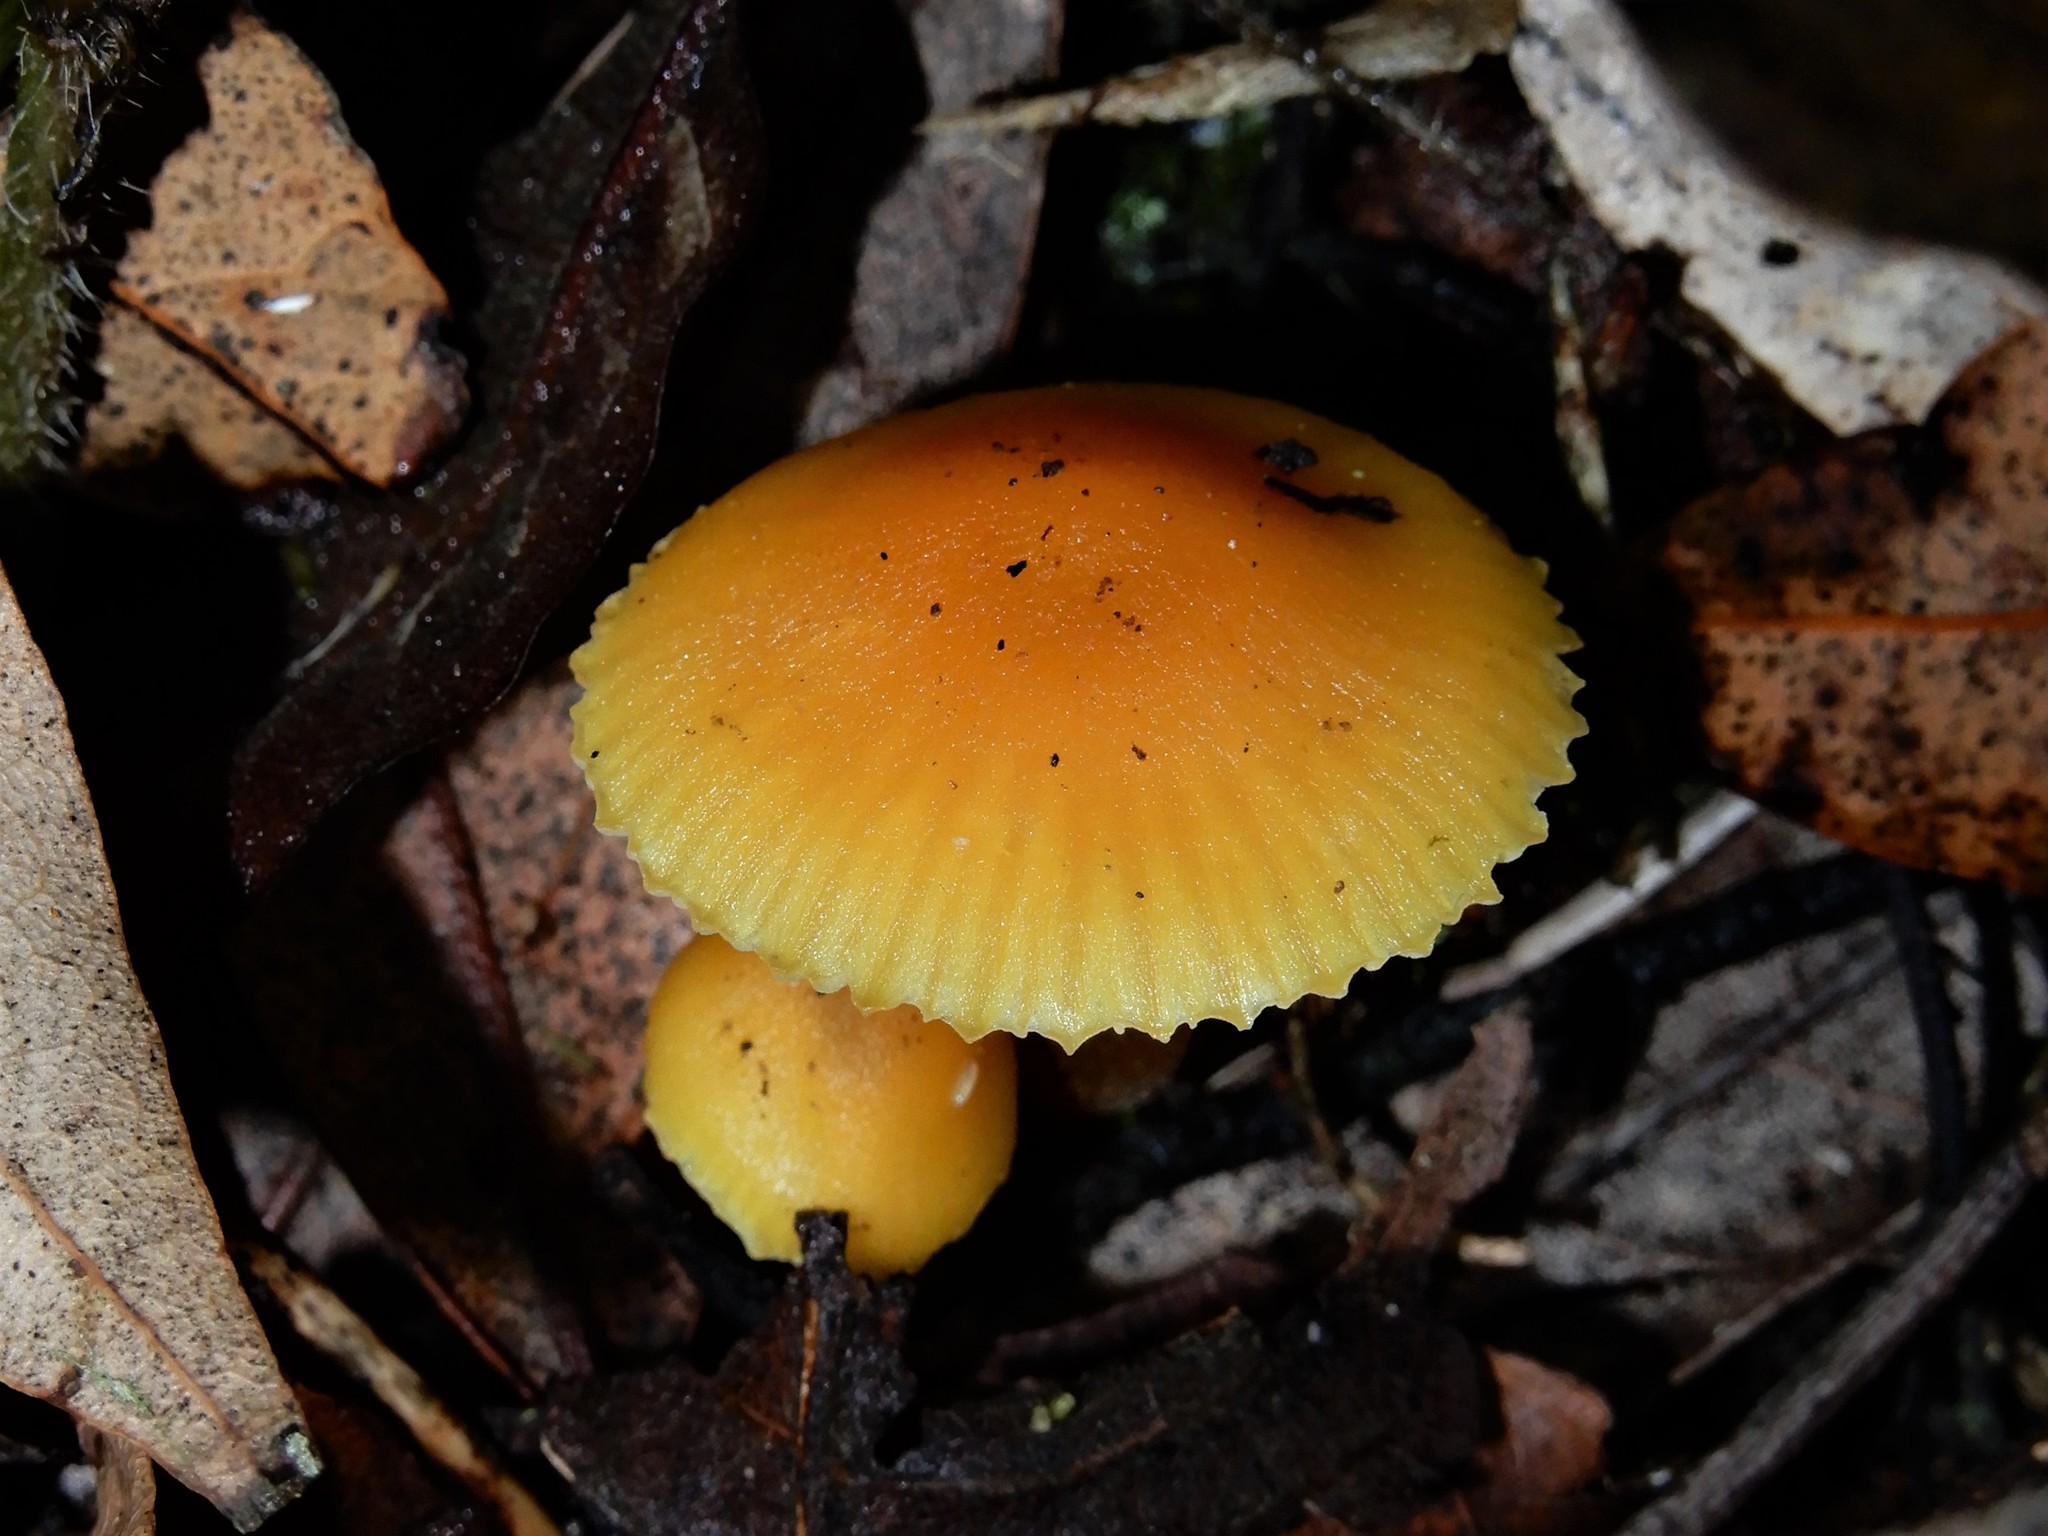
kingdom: Fungi
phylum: Basidiomycota
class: Agaricomycetes
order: Agaricales
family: Hygrophoraceae
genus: Hygrocybe
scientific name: Hygrocybe
